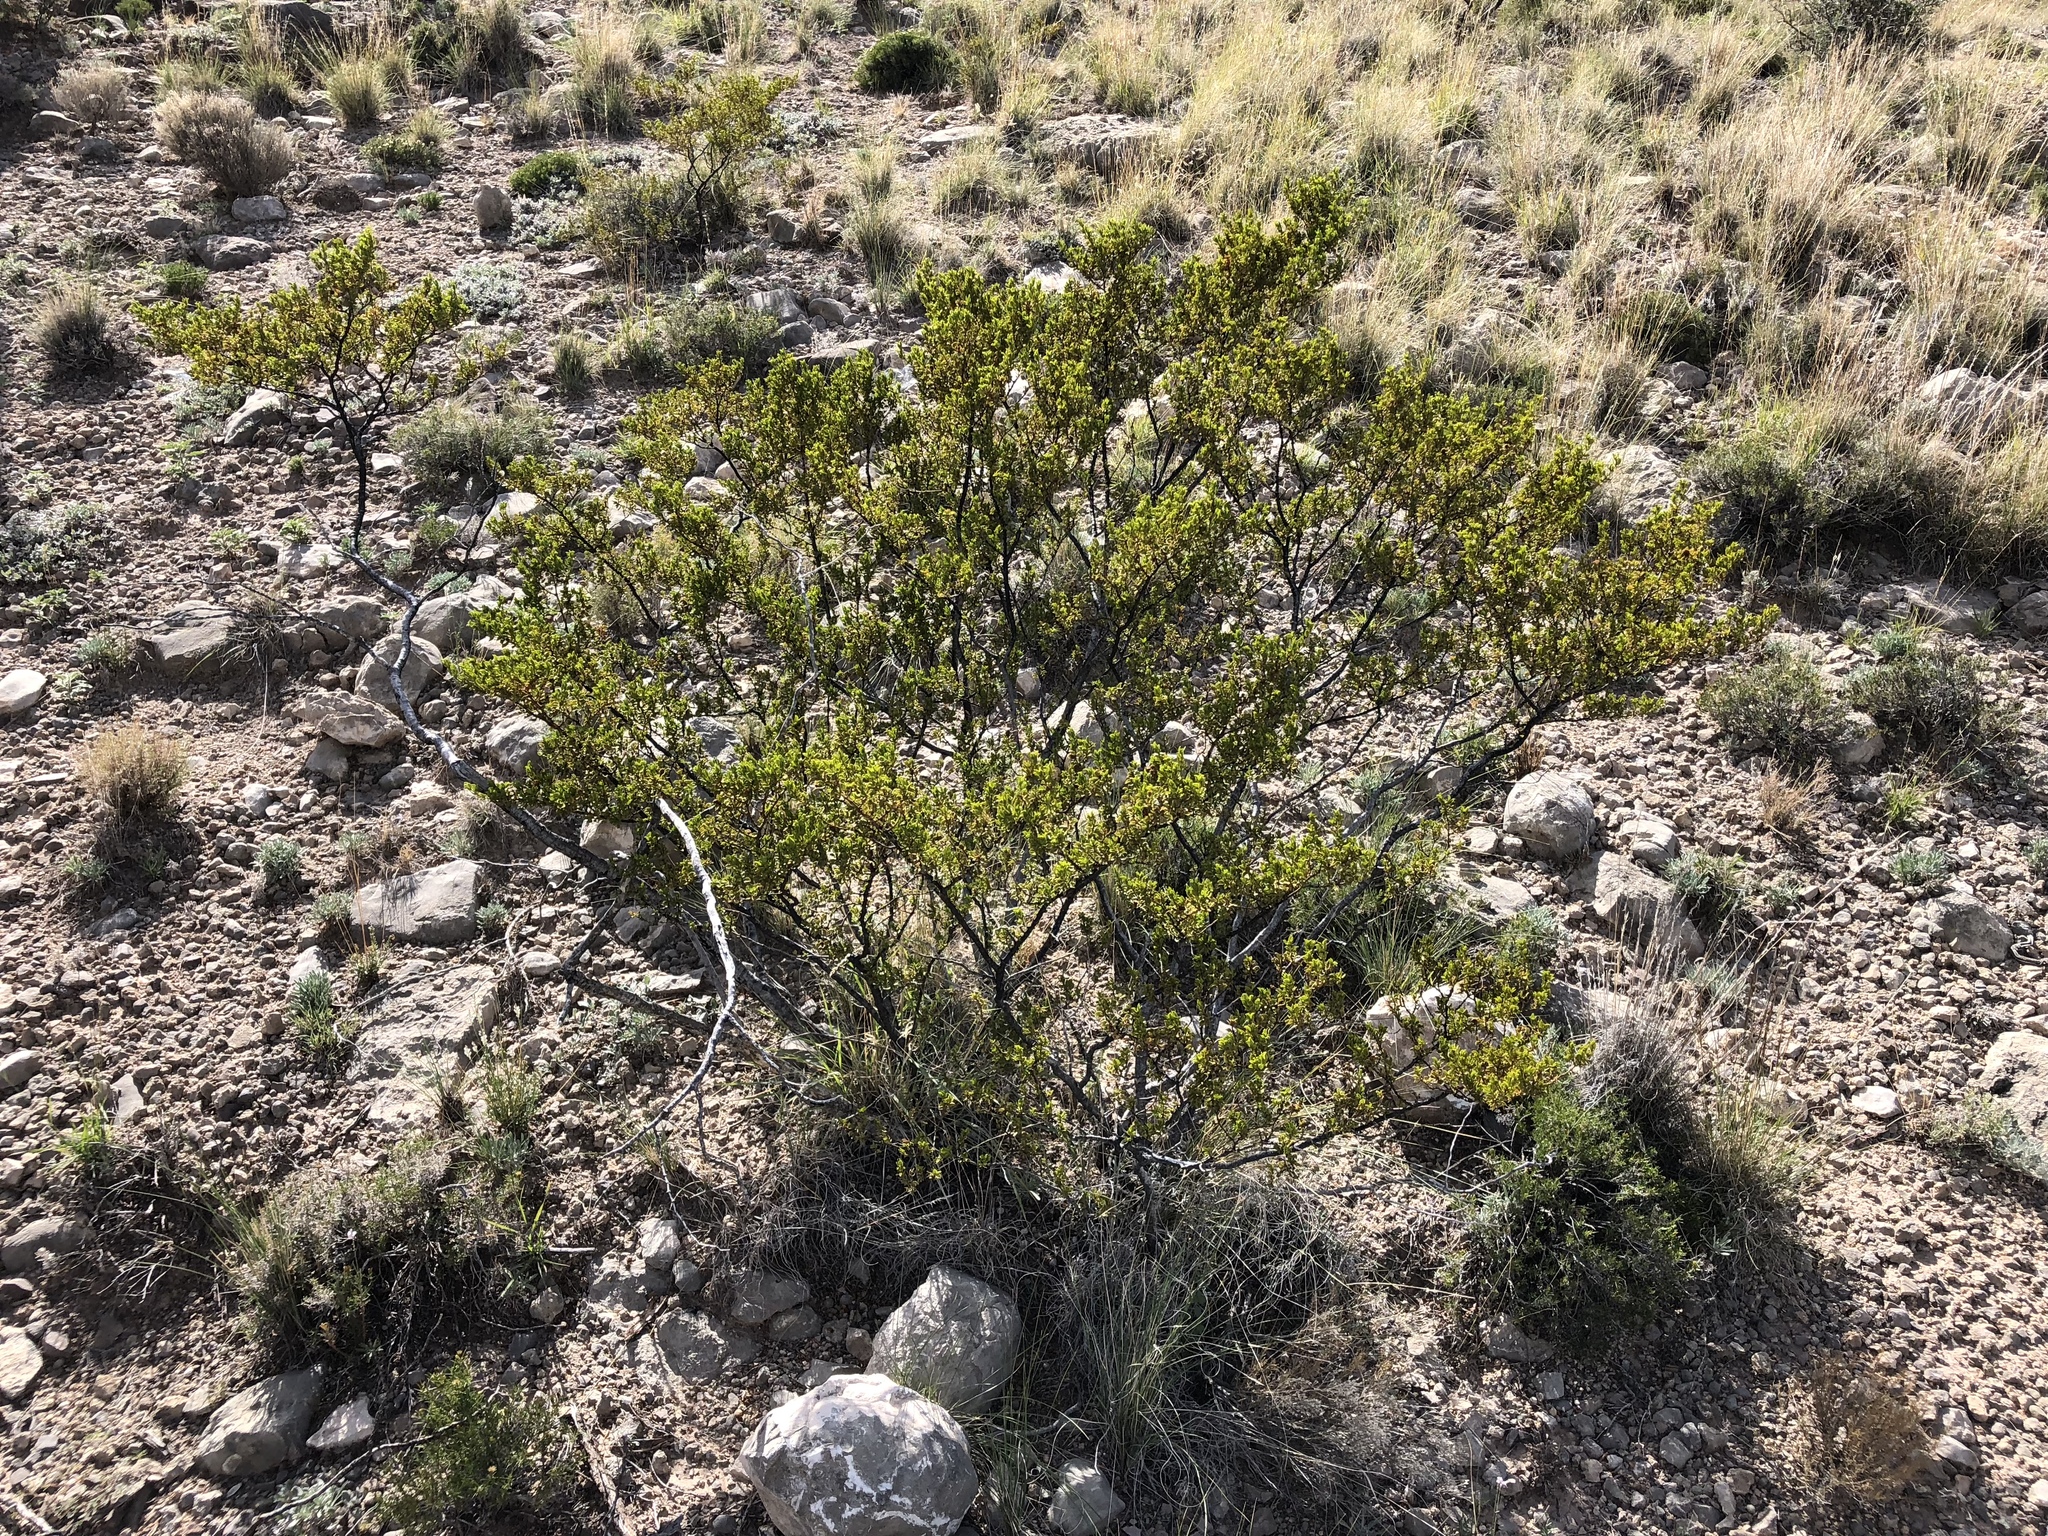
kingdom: Plantae
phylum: Tracheophyta
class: Magnoliopsida
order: Zygophyllales
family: Zygophyllaceae
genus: Larrea
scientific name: Larrea tridentata
